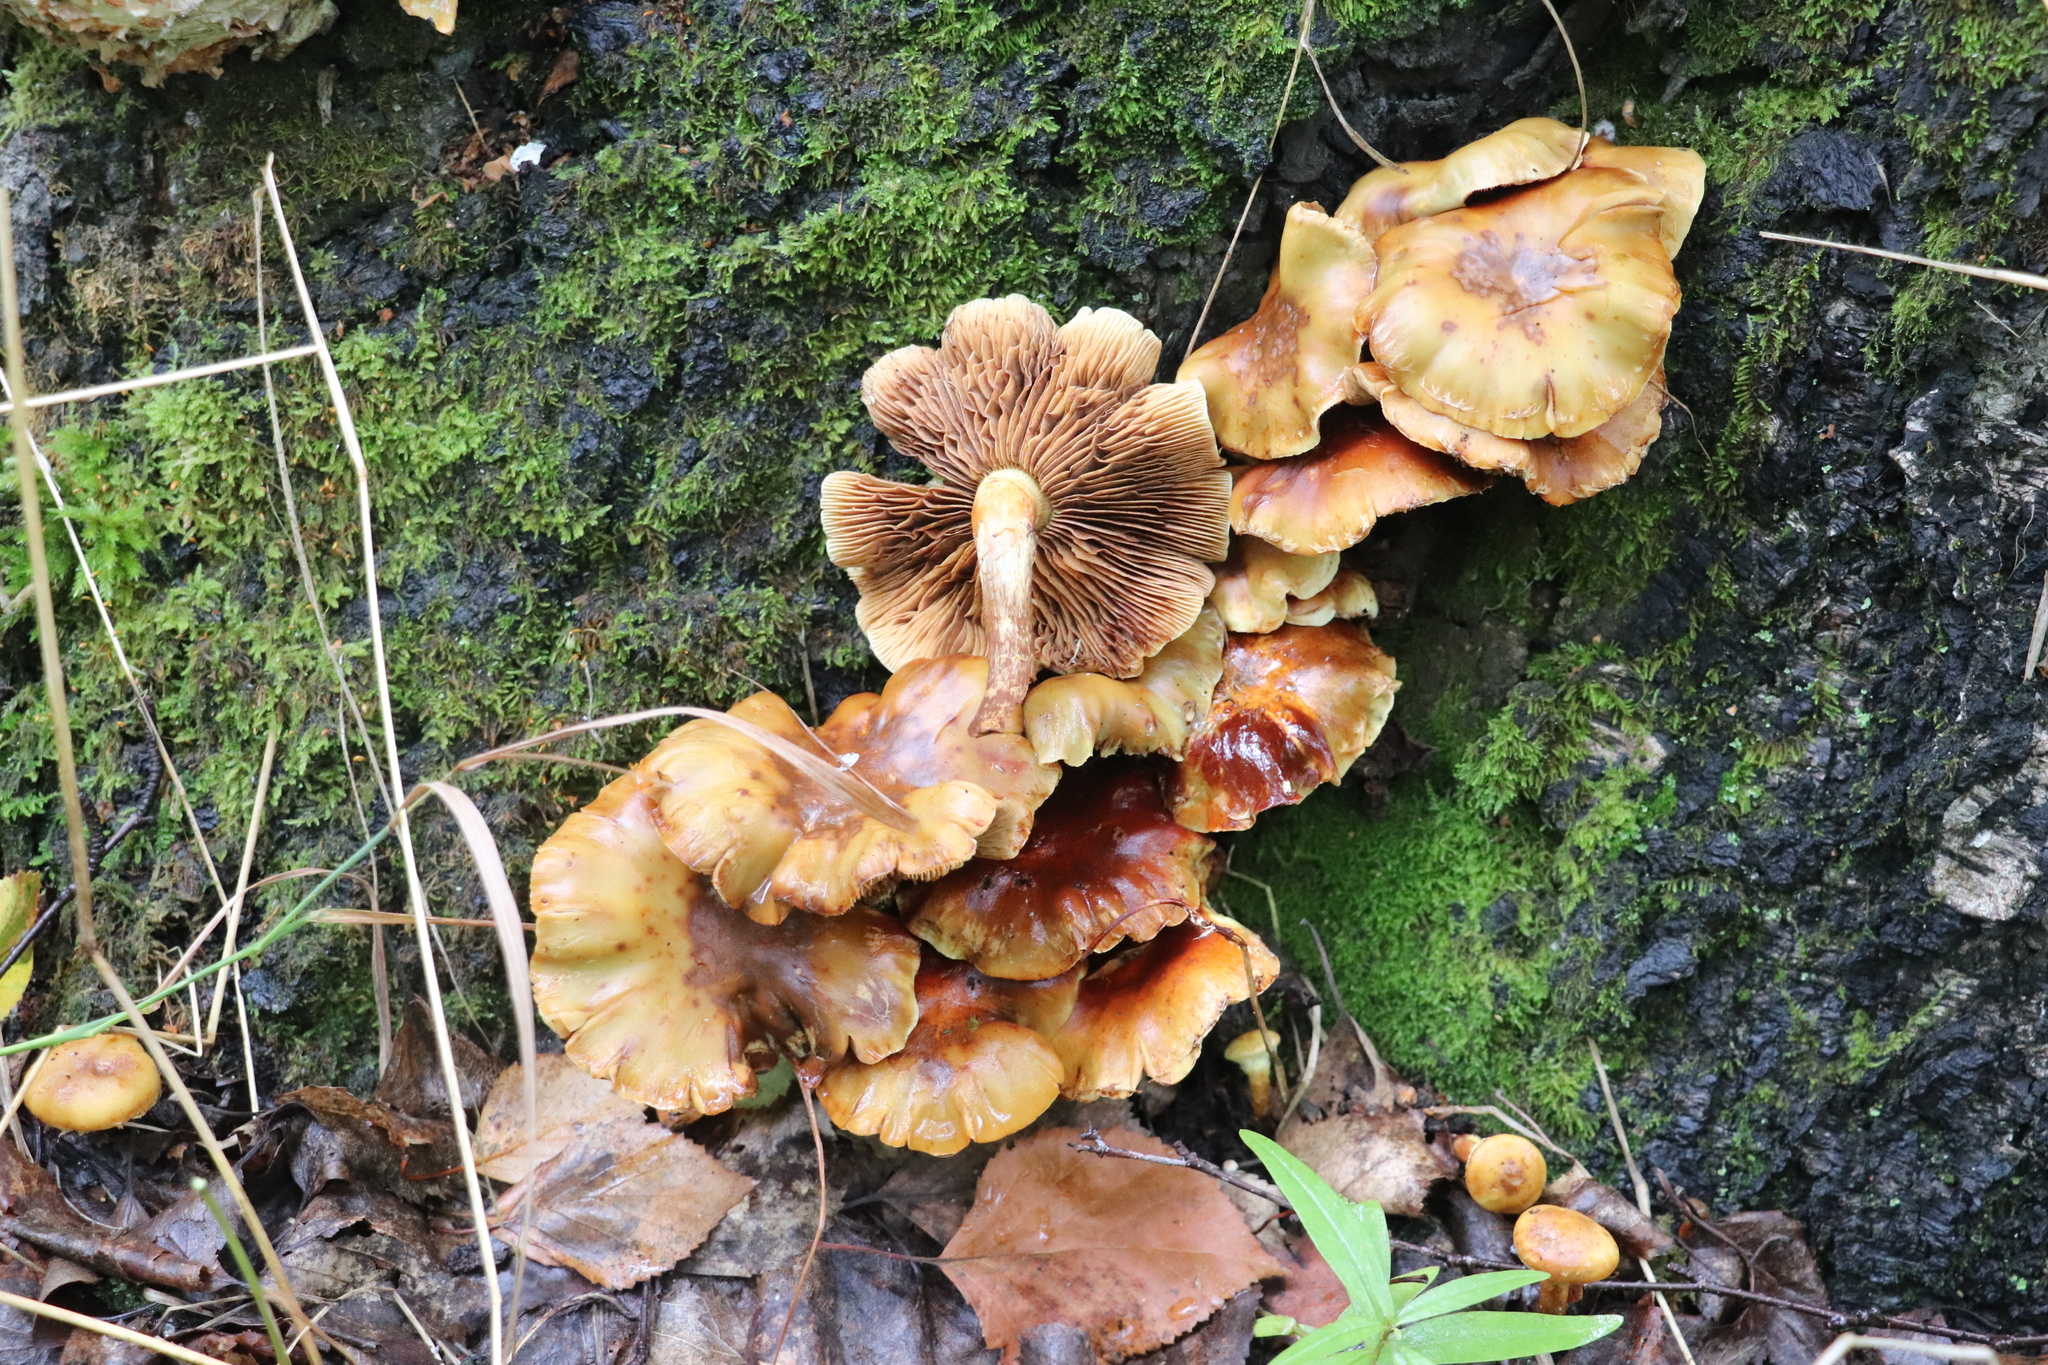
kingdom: Fungi
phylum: Basidiomycota
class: Agaricomycetes
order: Agaricales
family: Hymenogastraceae
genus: Flammula
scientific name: Flammula alnicola
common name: Alder scalycap
